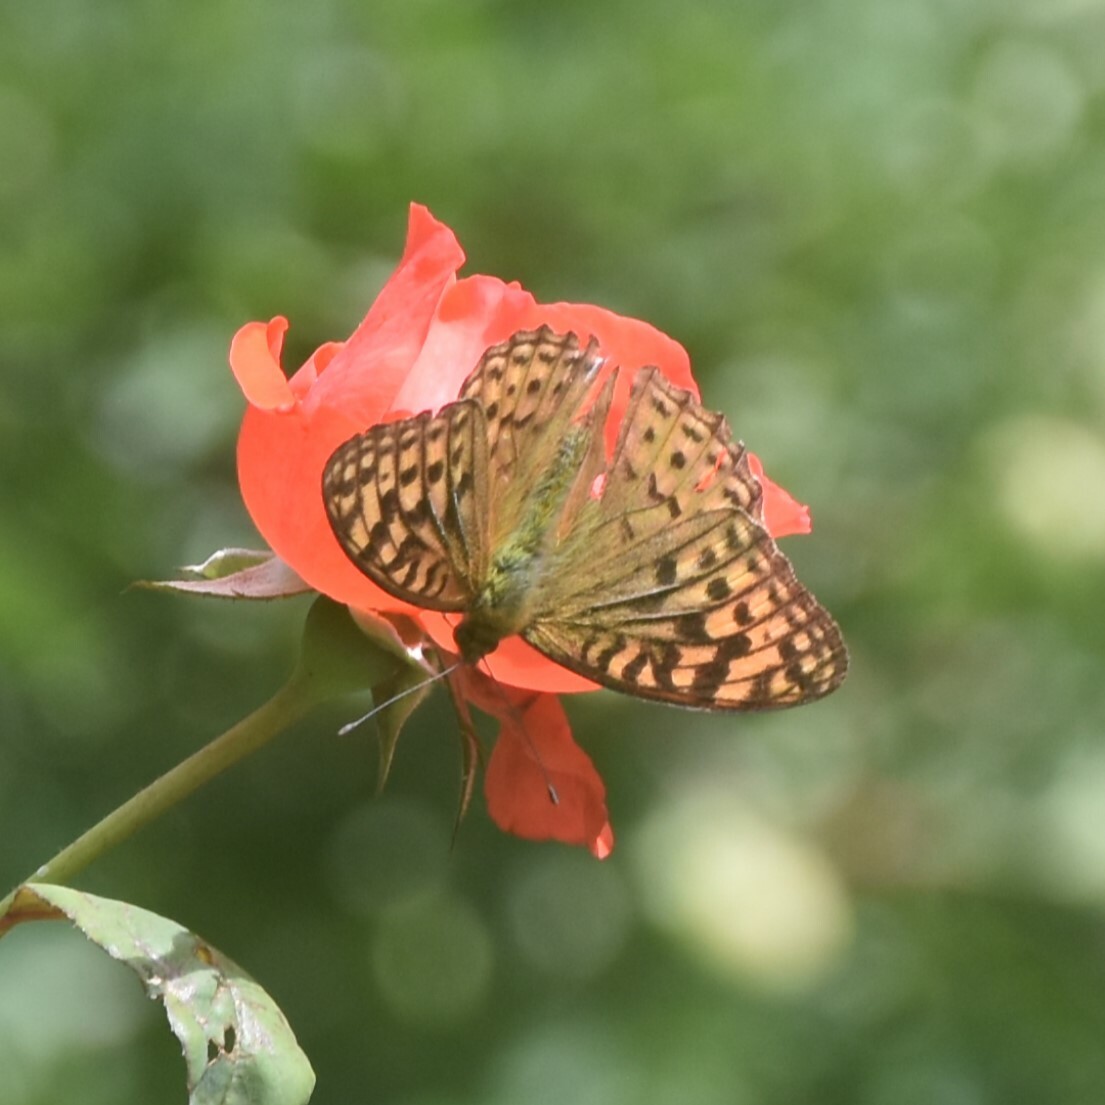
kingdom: Animalia
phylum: Arthropoda
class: Insecta
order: Lepidoptera
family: Nymphalidae
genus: Fabriciana
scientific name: Fabriciana kamala
